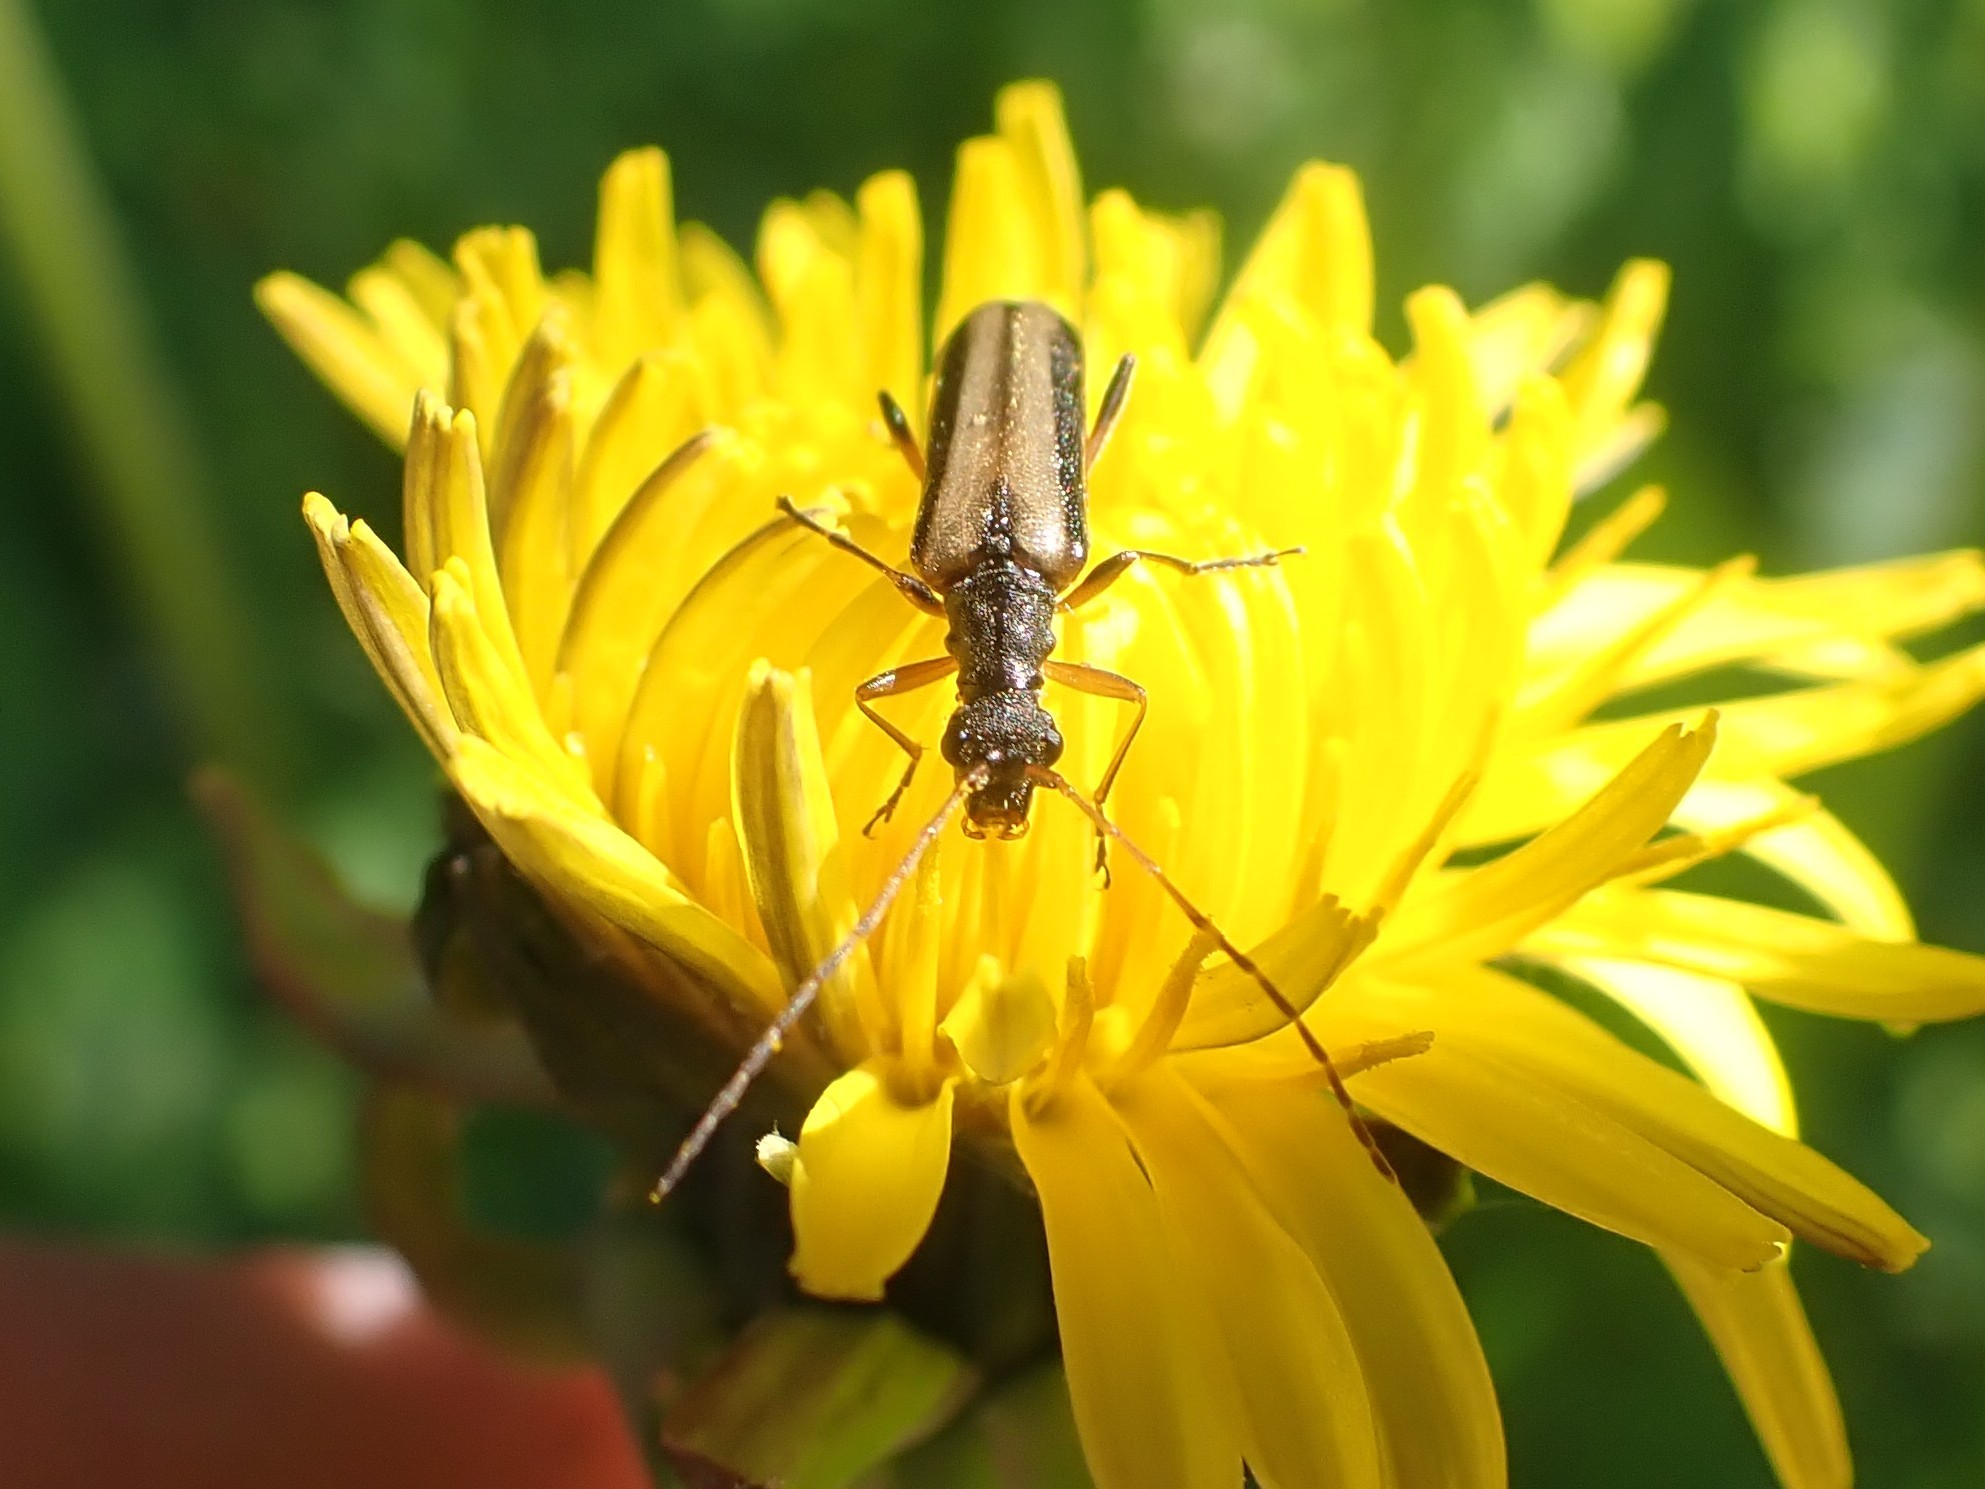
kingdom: Animalia
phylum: Arthropoda
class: Insecta
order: Coleoptera
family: Cerambycidae
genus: Leptalia
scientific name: Leptalia macilenta
